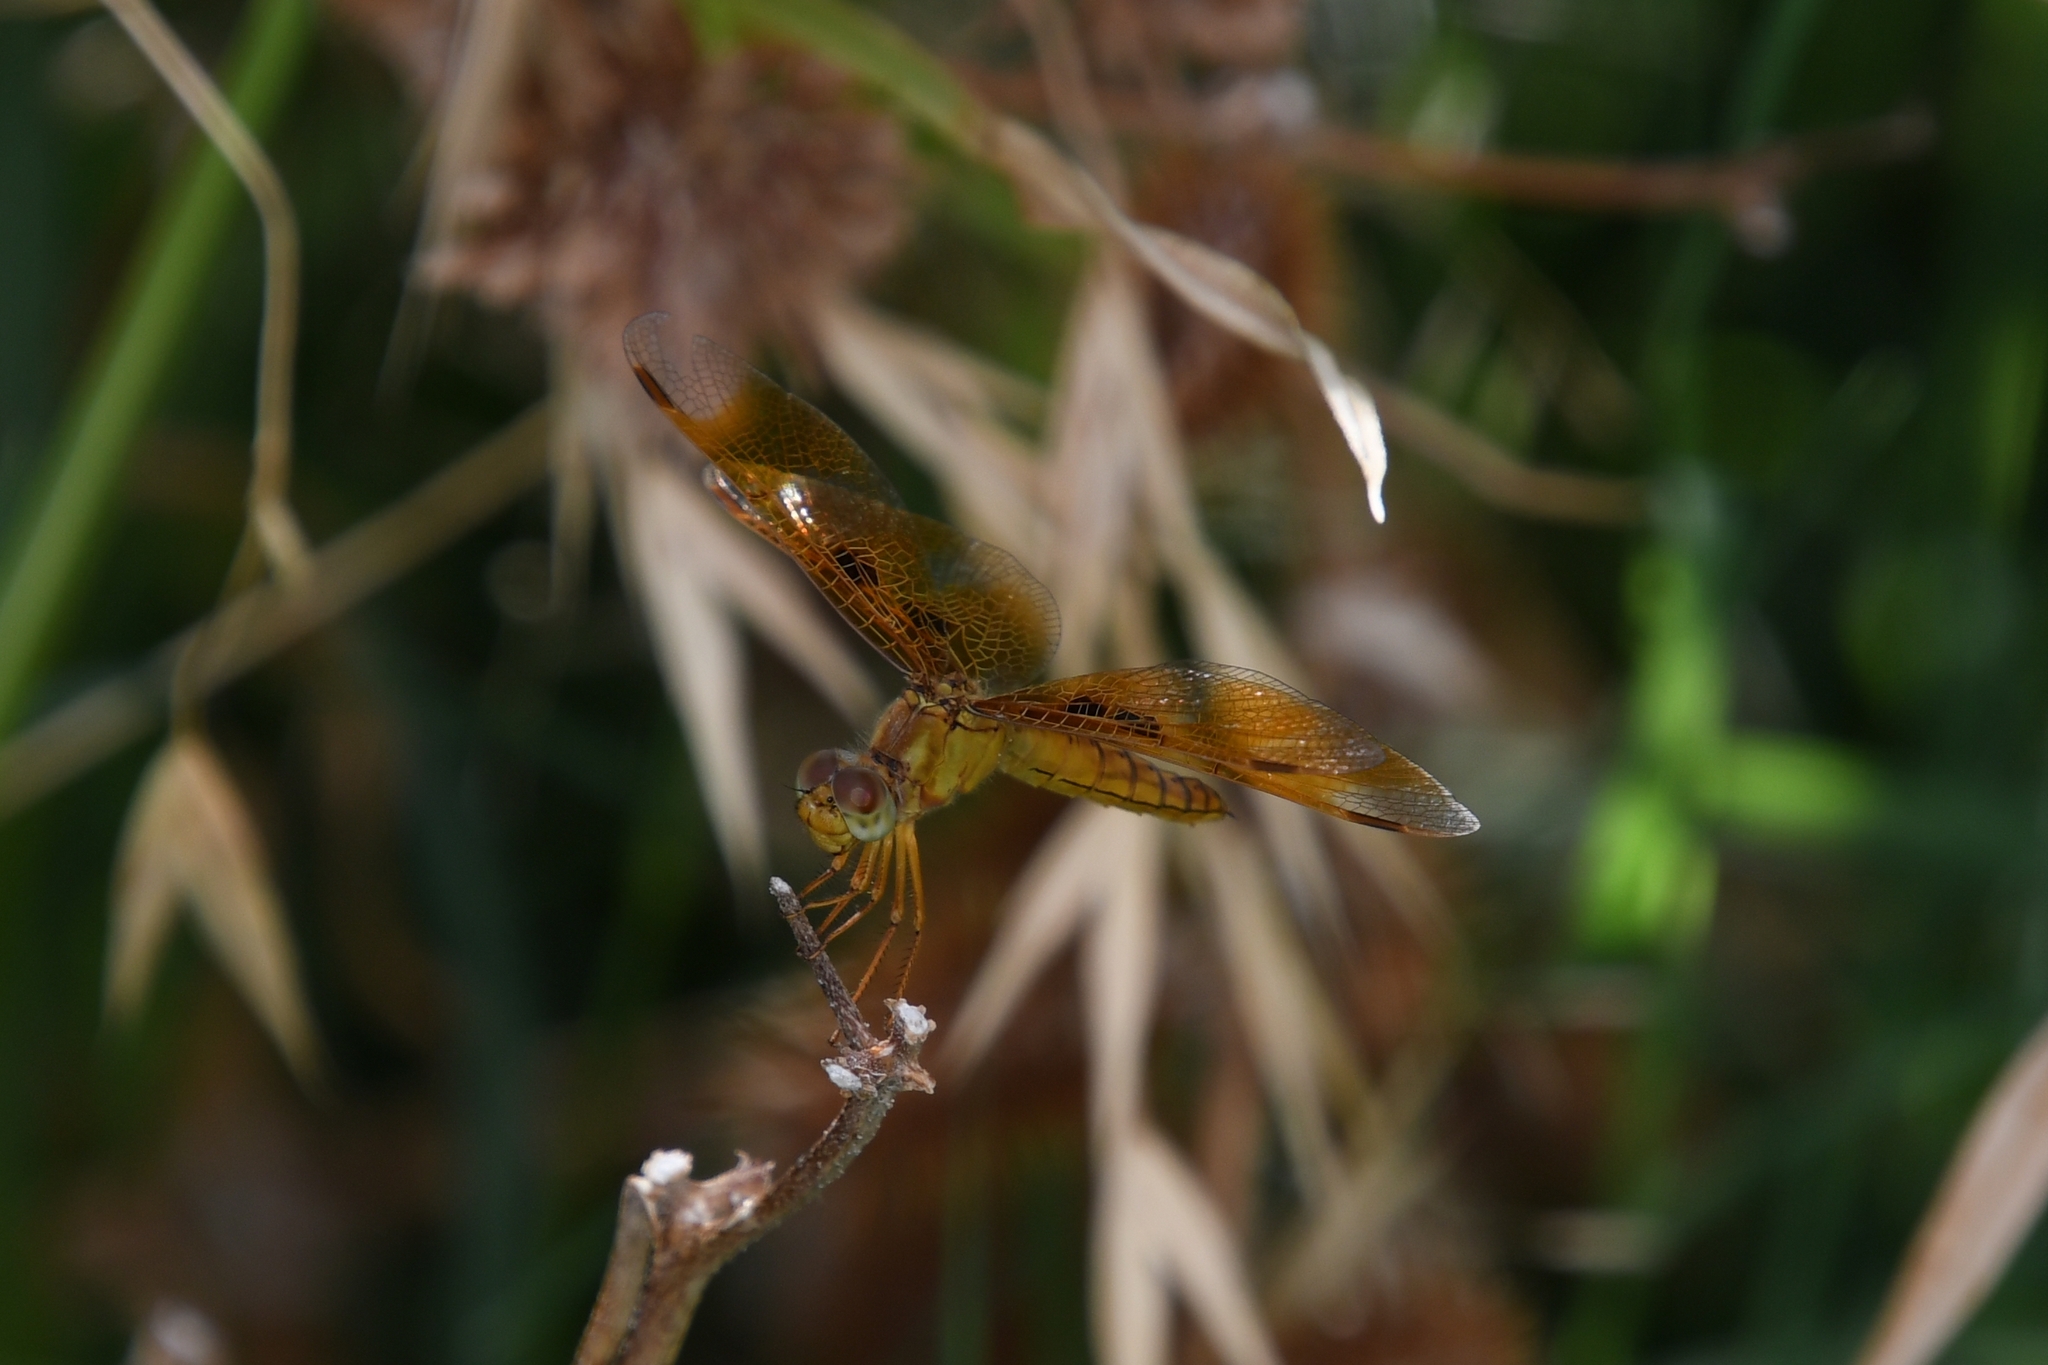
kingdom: Animalia
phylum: Arthropoda
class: Insecta
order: Odonata
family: Libellulidae
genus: Perithemis
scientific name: Perithemis intensa
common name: Mexican amberwing
